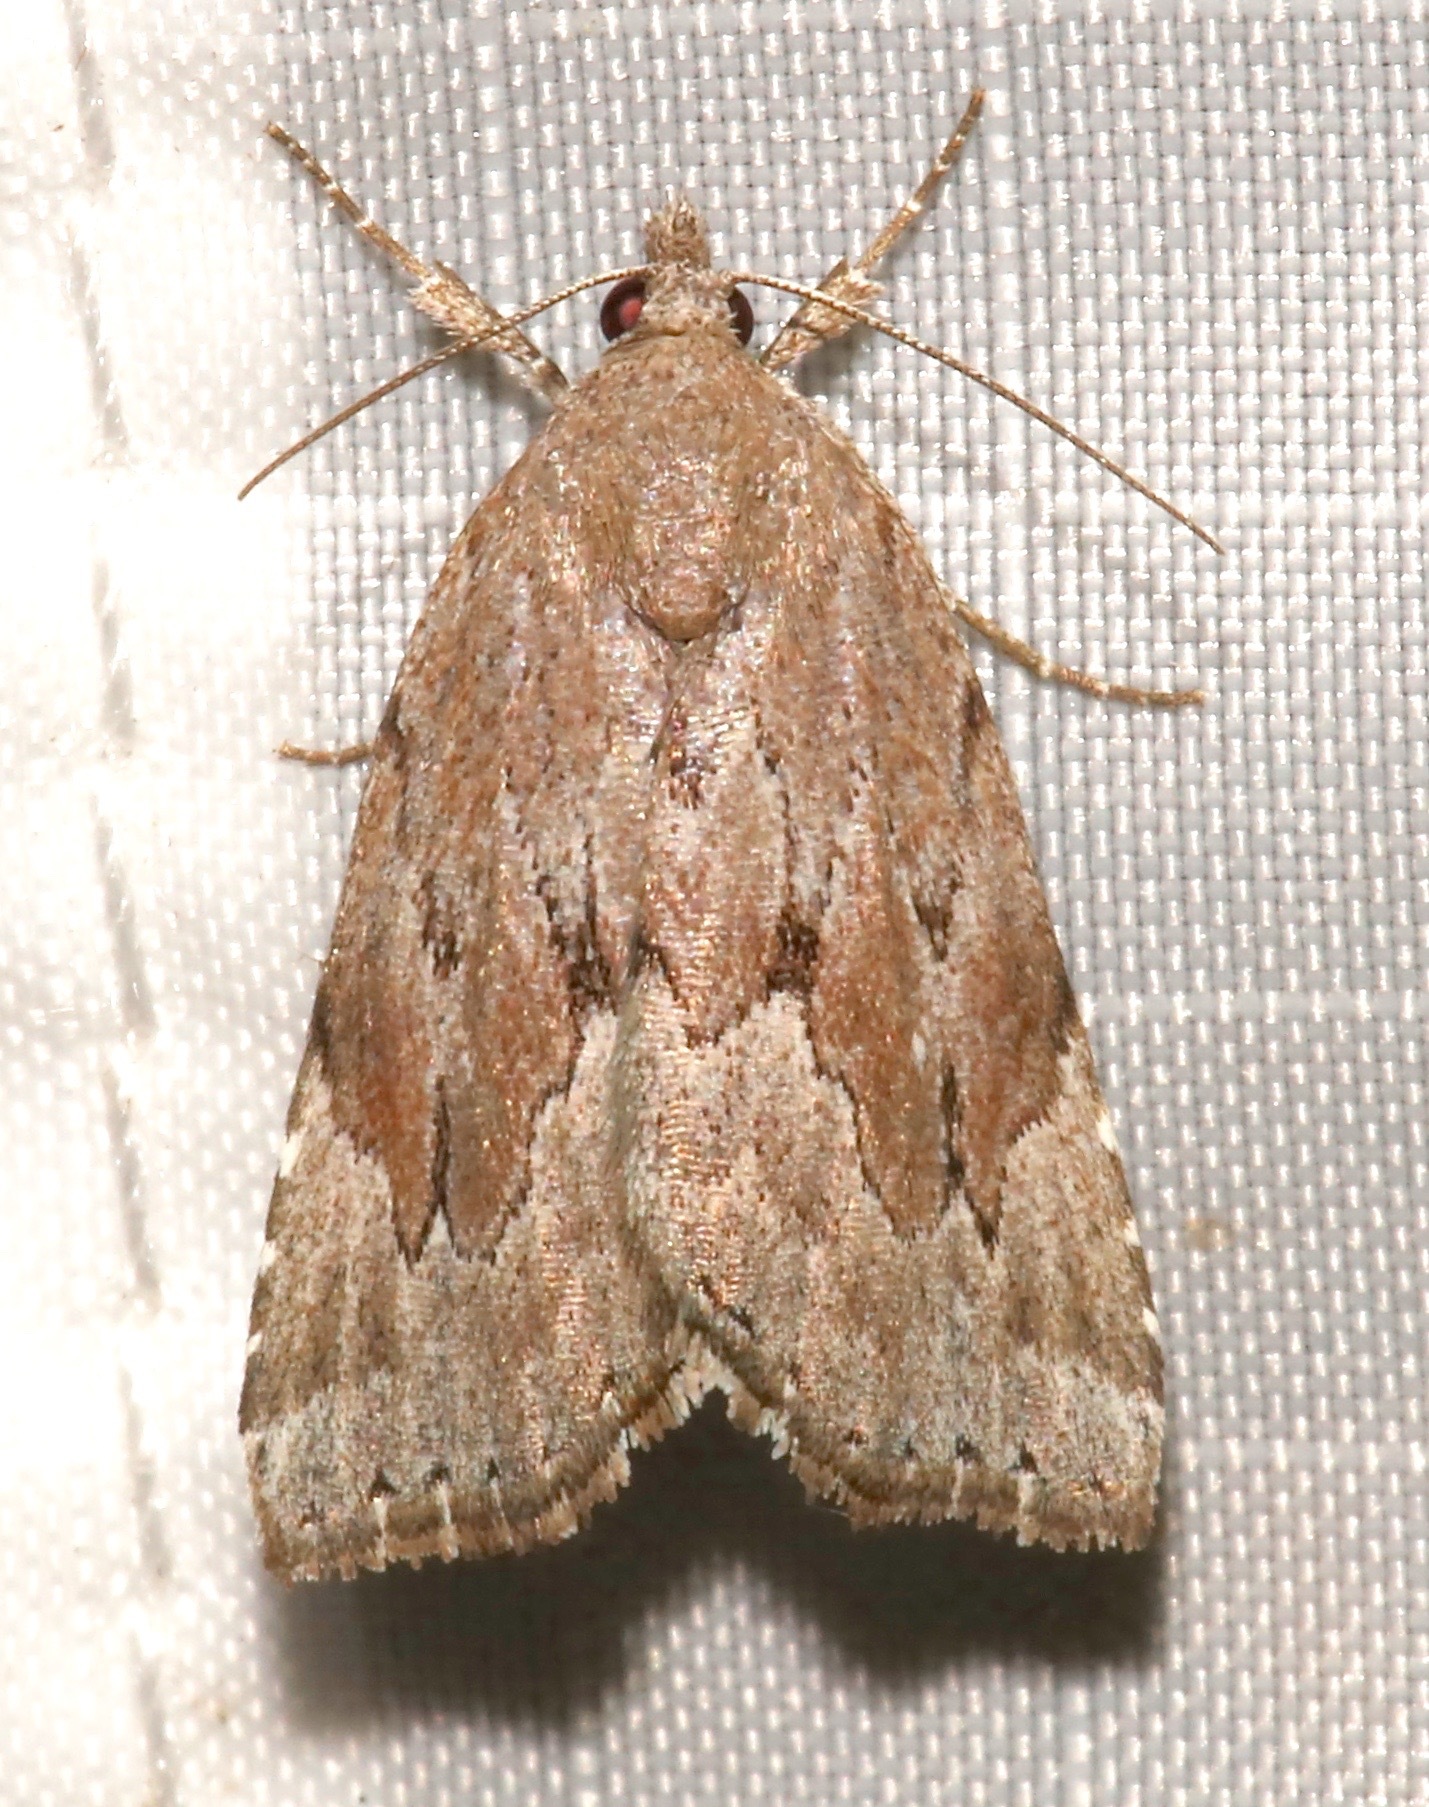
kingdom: Animalia
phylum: Arthropoda
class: Insecta
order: Lepidoptera
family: Erebidae
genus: Cutina
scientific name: Cutina albopunctella
